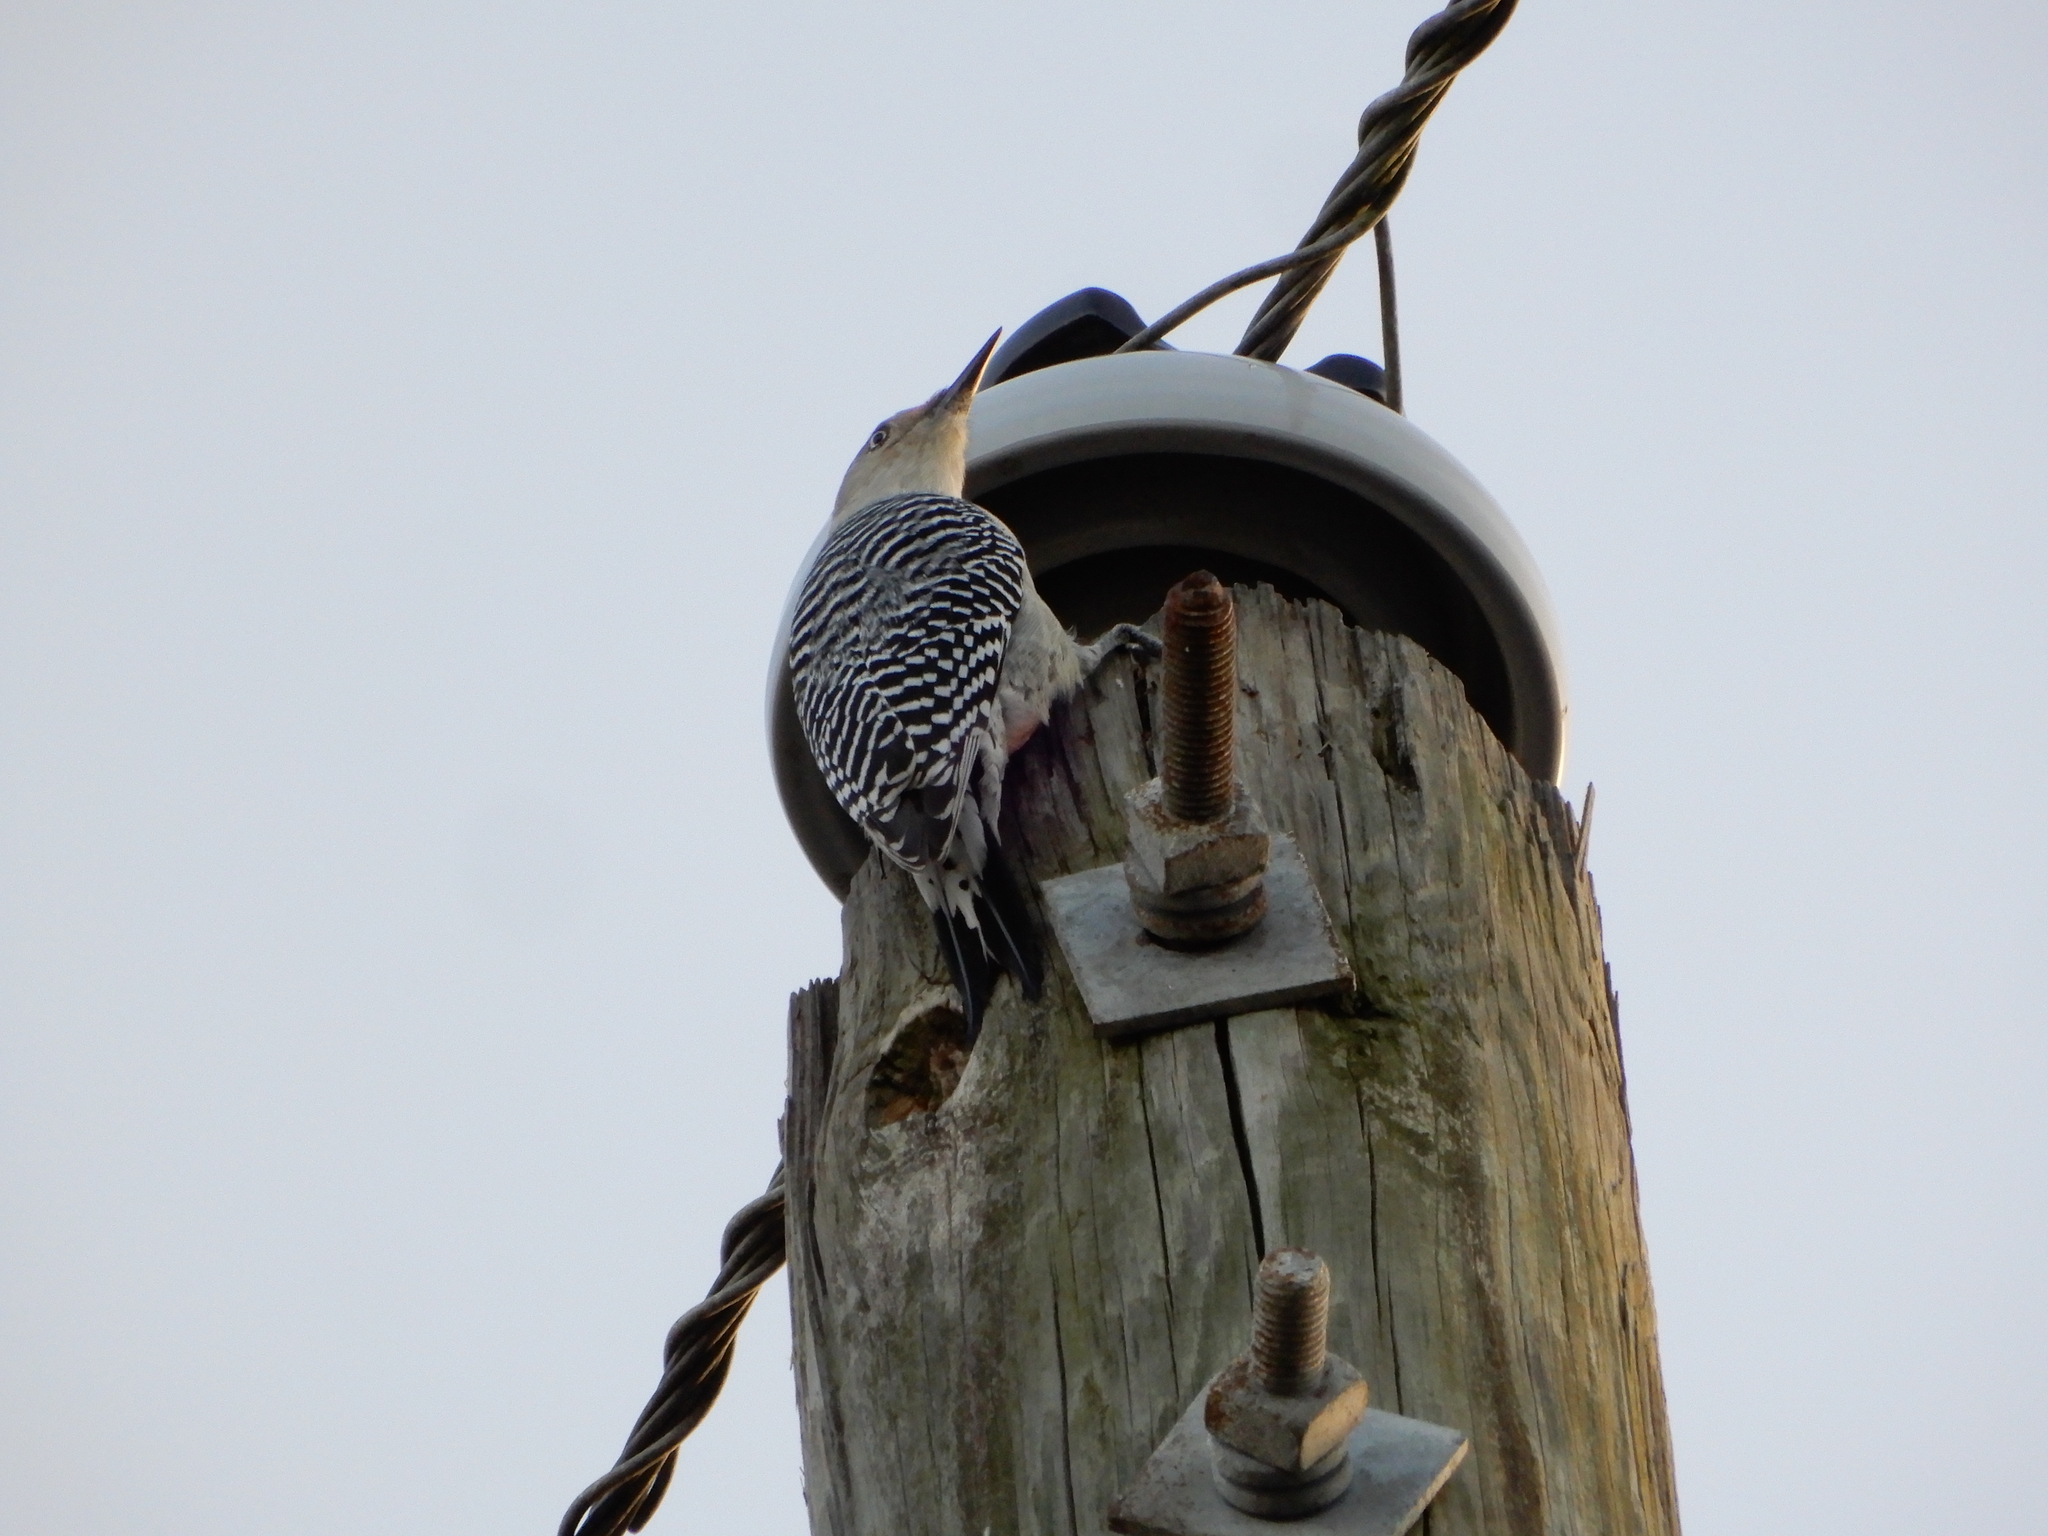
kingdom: Animalia
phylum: Chordata
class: Aves
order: Piciformes
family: Picidae
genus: Melanerpes
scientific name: Melanerpes carolinus
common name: Red-bellied woodpecker
